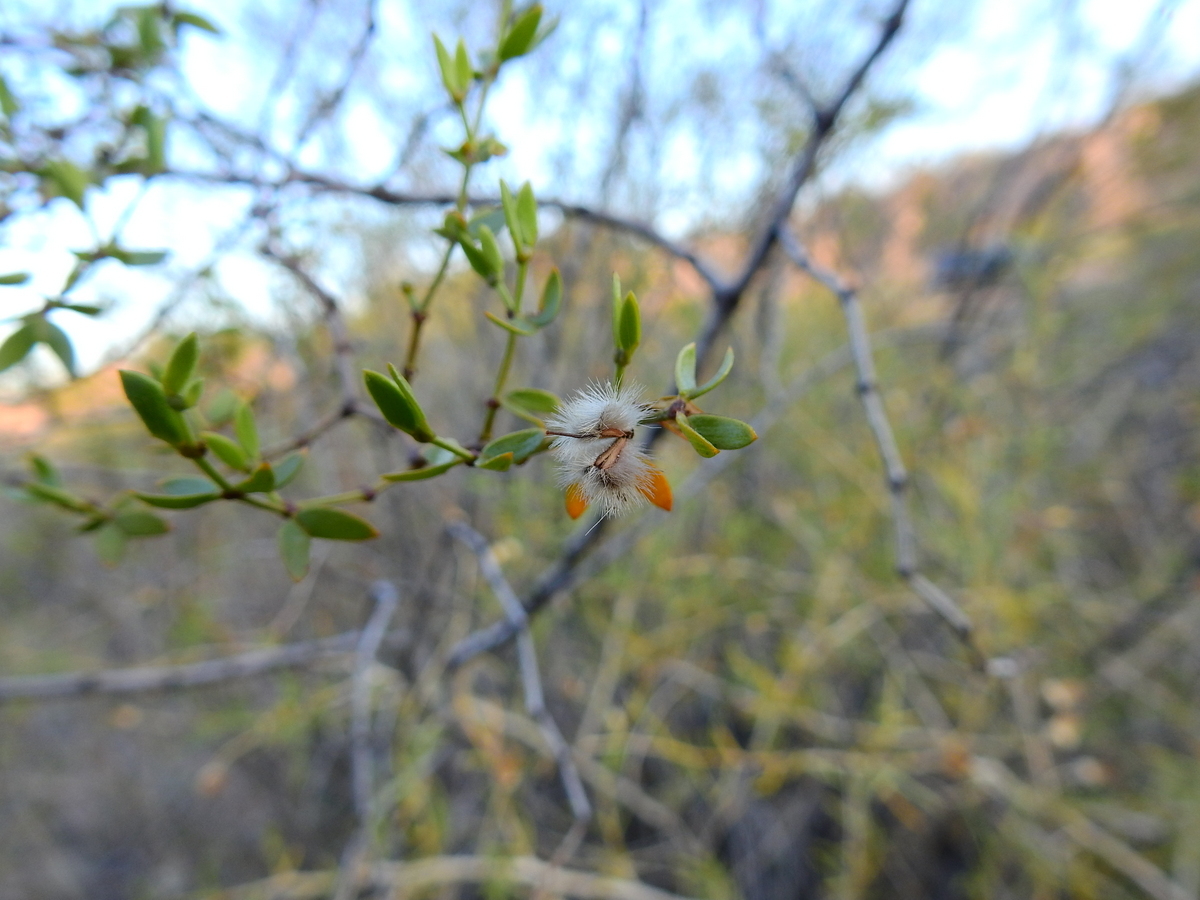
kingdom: Plantae
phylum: Tracheophyta
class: Magnoliopsida
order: Zygophyllales
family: Zygophyllaceae
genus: Larrea
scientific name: Larrea divaricata
